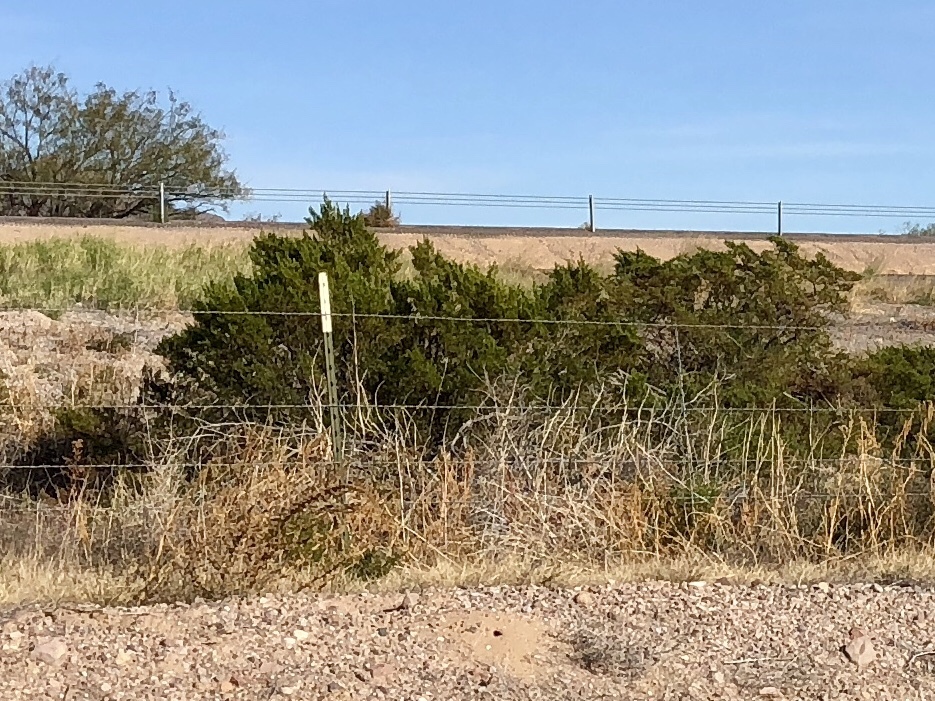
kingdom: Plantae
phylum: Tracheophyta
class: Magnoliopsida
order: Zygophyllales
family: Zygophyllaceae
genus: Larrea
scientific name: Larrea tridentata
